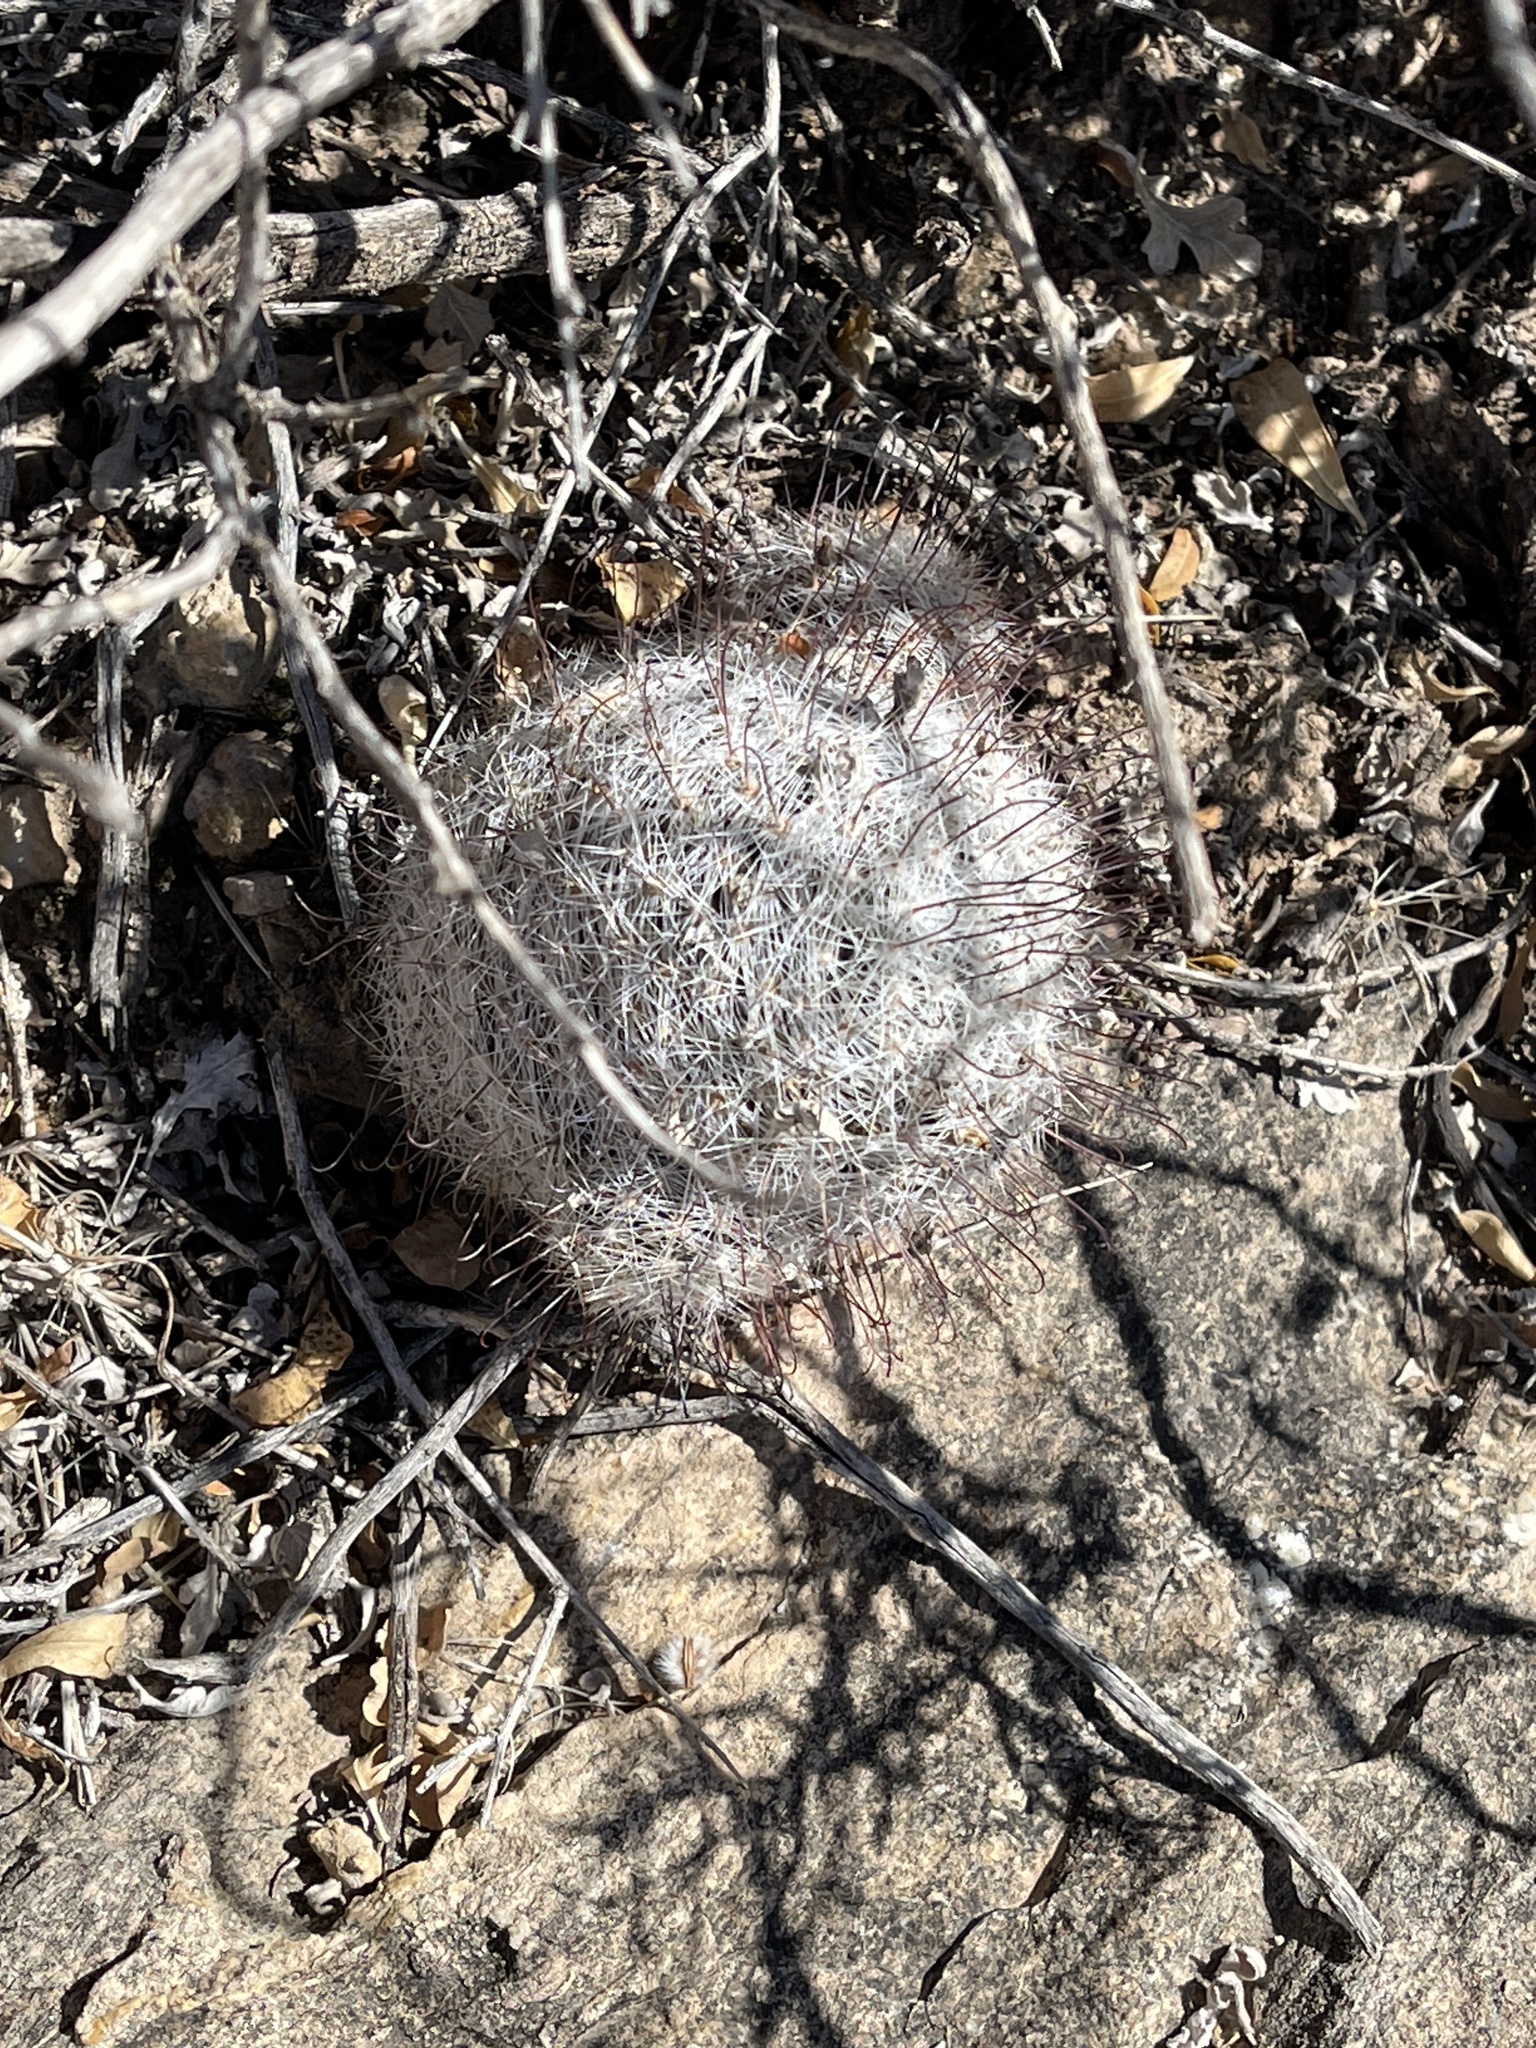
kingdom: Plantae
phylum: Tracheophyta
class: Magnoliopsida
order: Caryophyllales
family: Cactaceae
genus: Cochemiea
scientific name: Cochemiea grahamii
